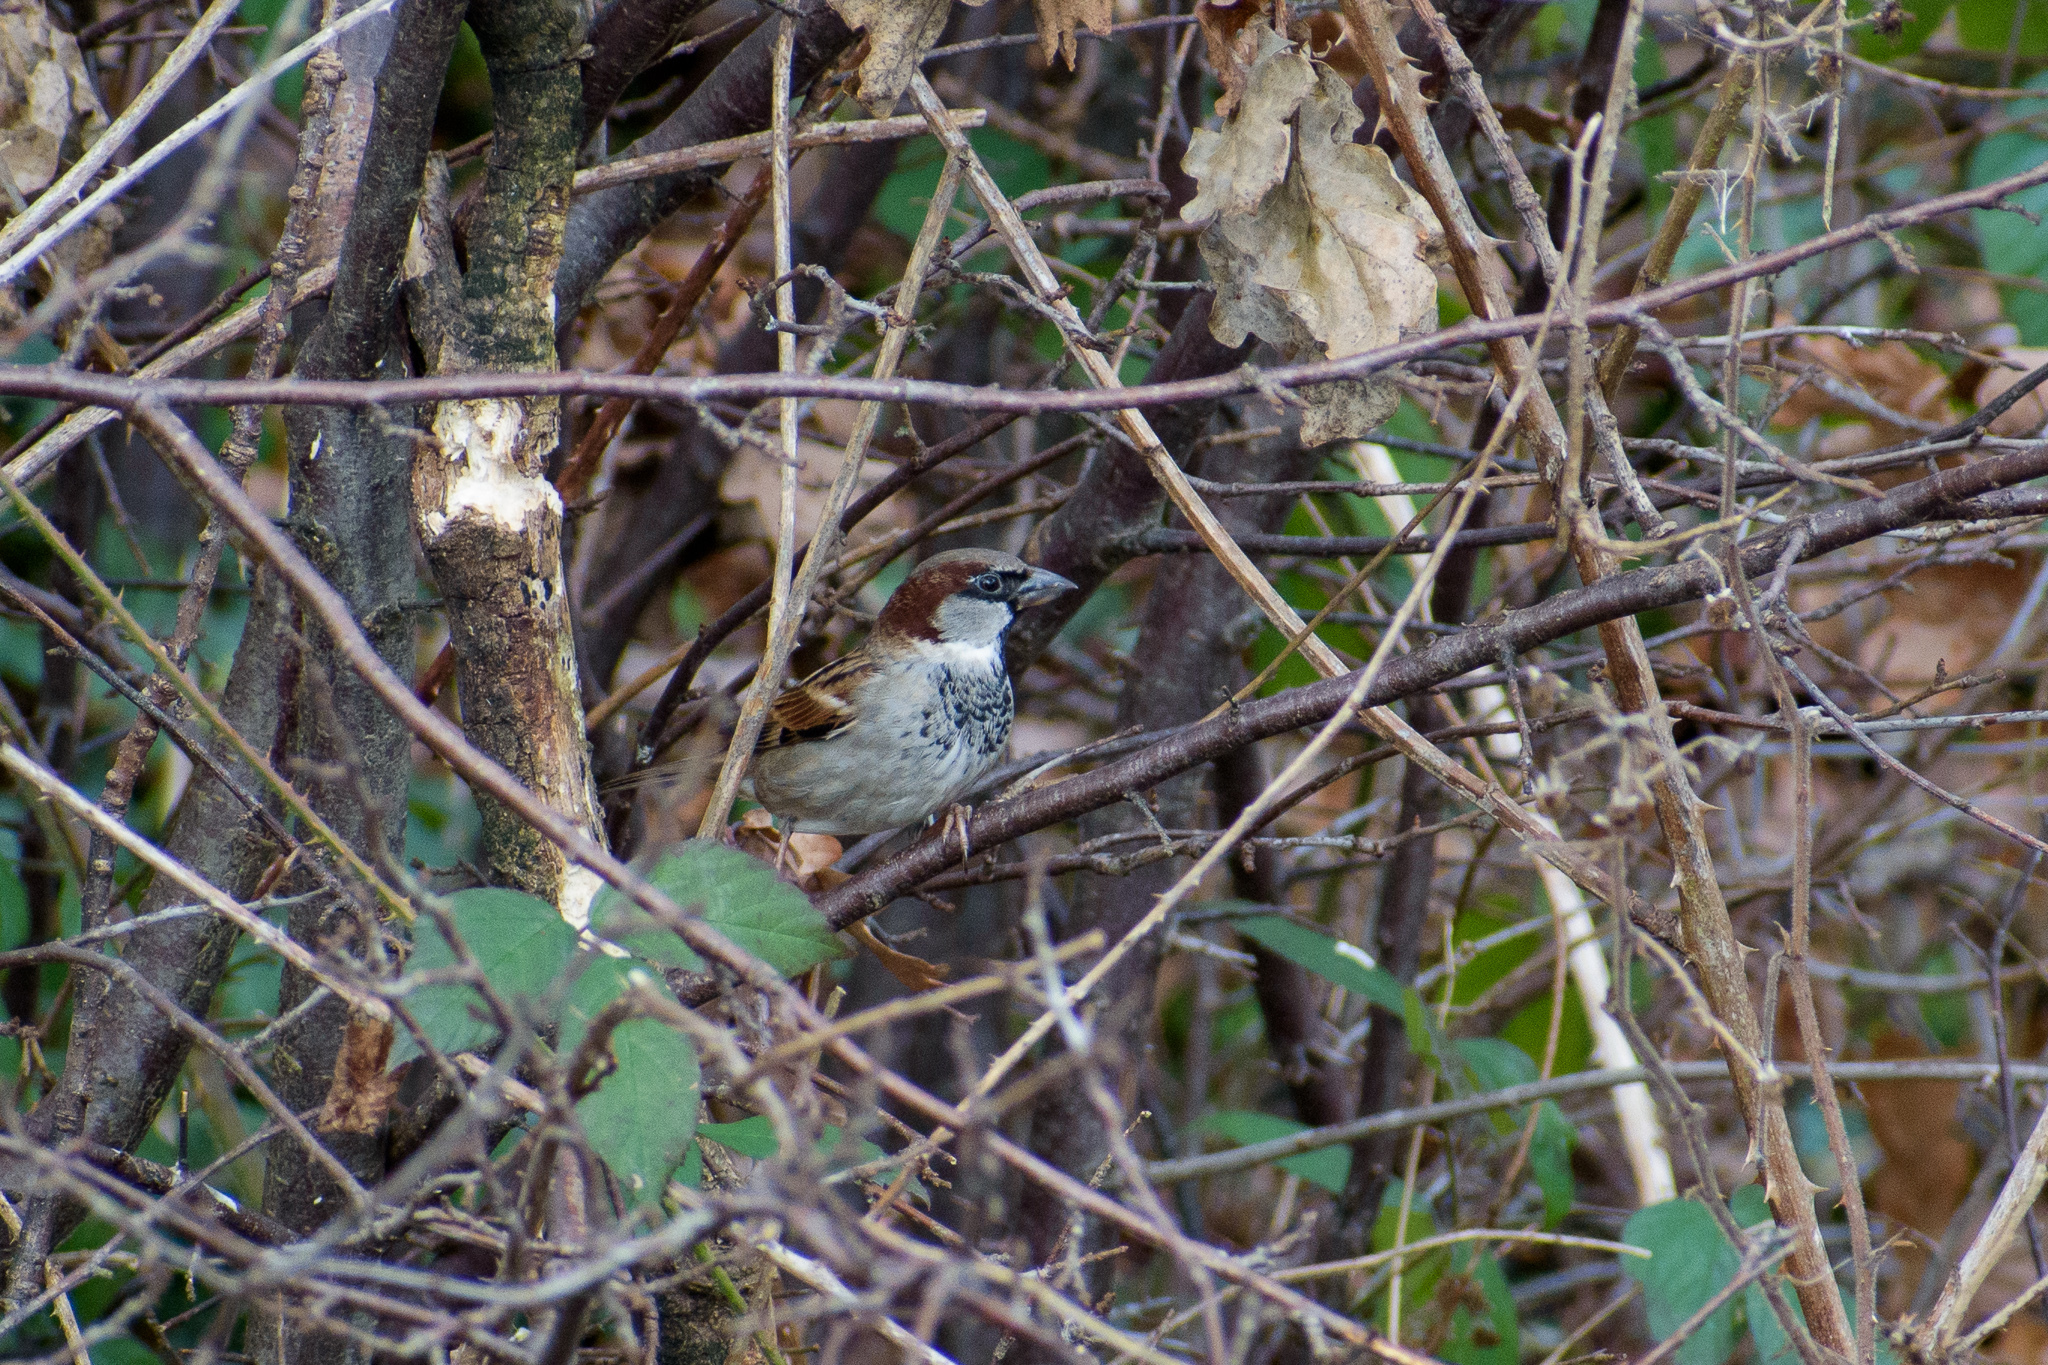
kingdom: Animalia
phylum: Chordata
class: Aves
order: Passeriformes
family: Passeridae
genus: Passer
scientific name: Passer domesticus
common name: House sparrow
